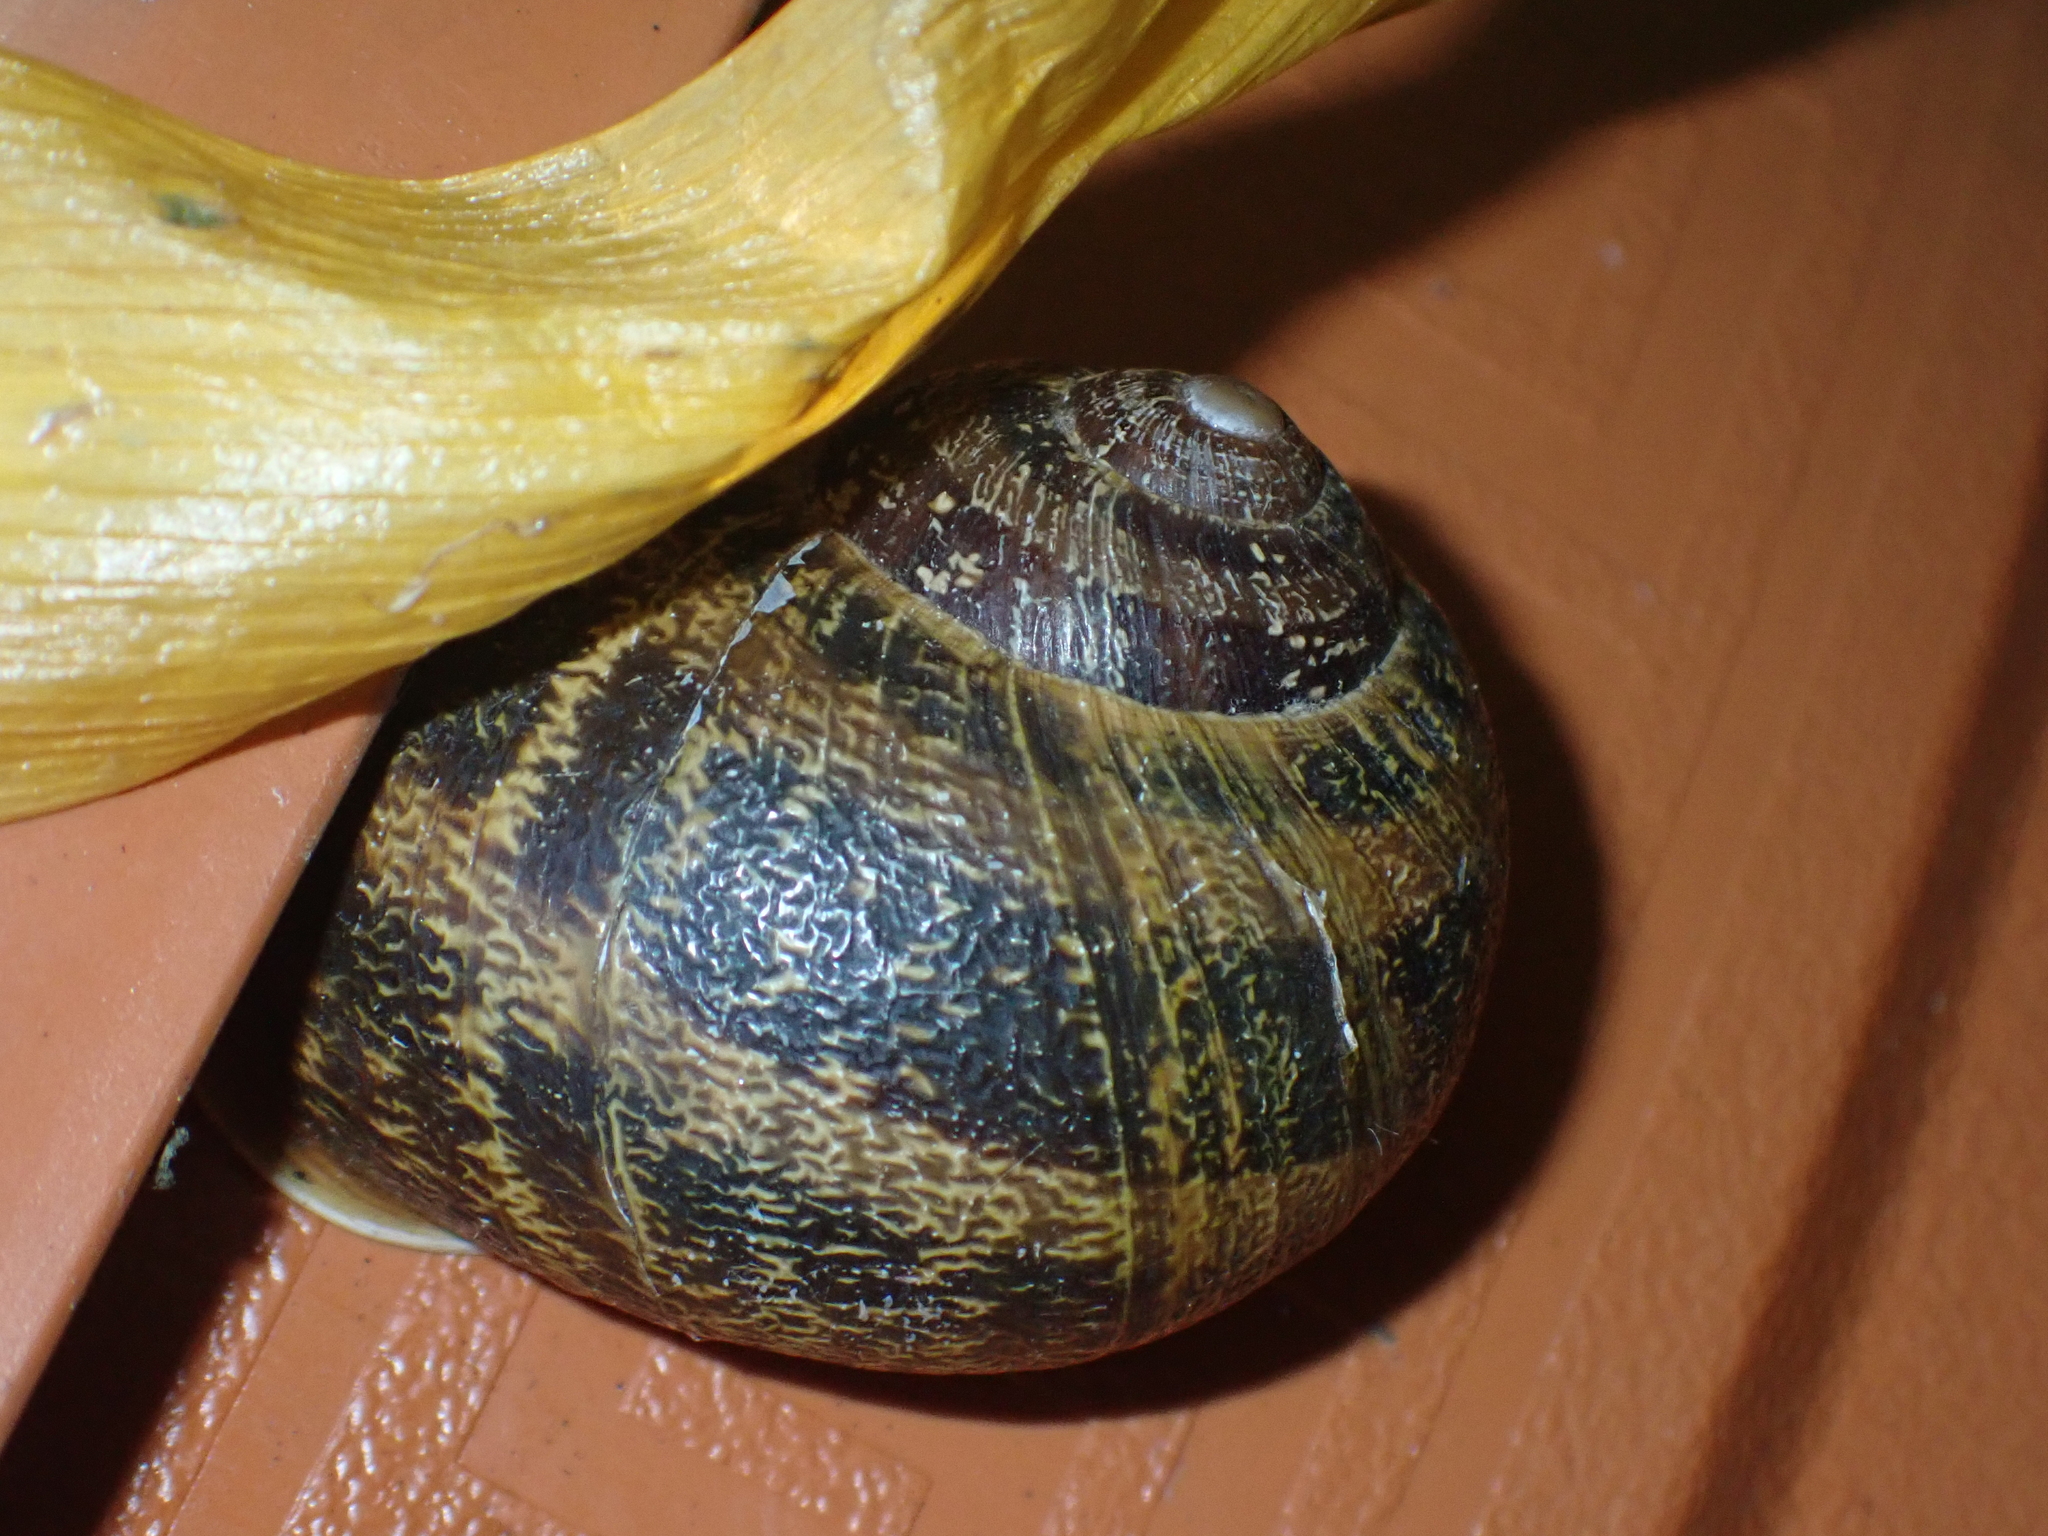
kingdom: Animalia
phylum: Mollusca
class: Gastropoda
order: Stylommatophora
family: Helicidae
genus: Cornu
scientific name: Cornu aspersum
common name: Brown garden snail
